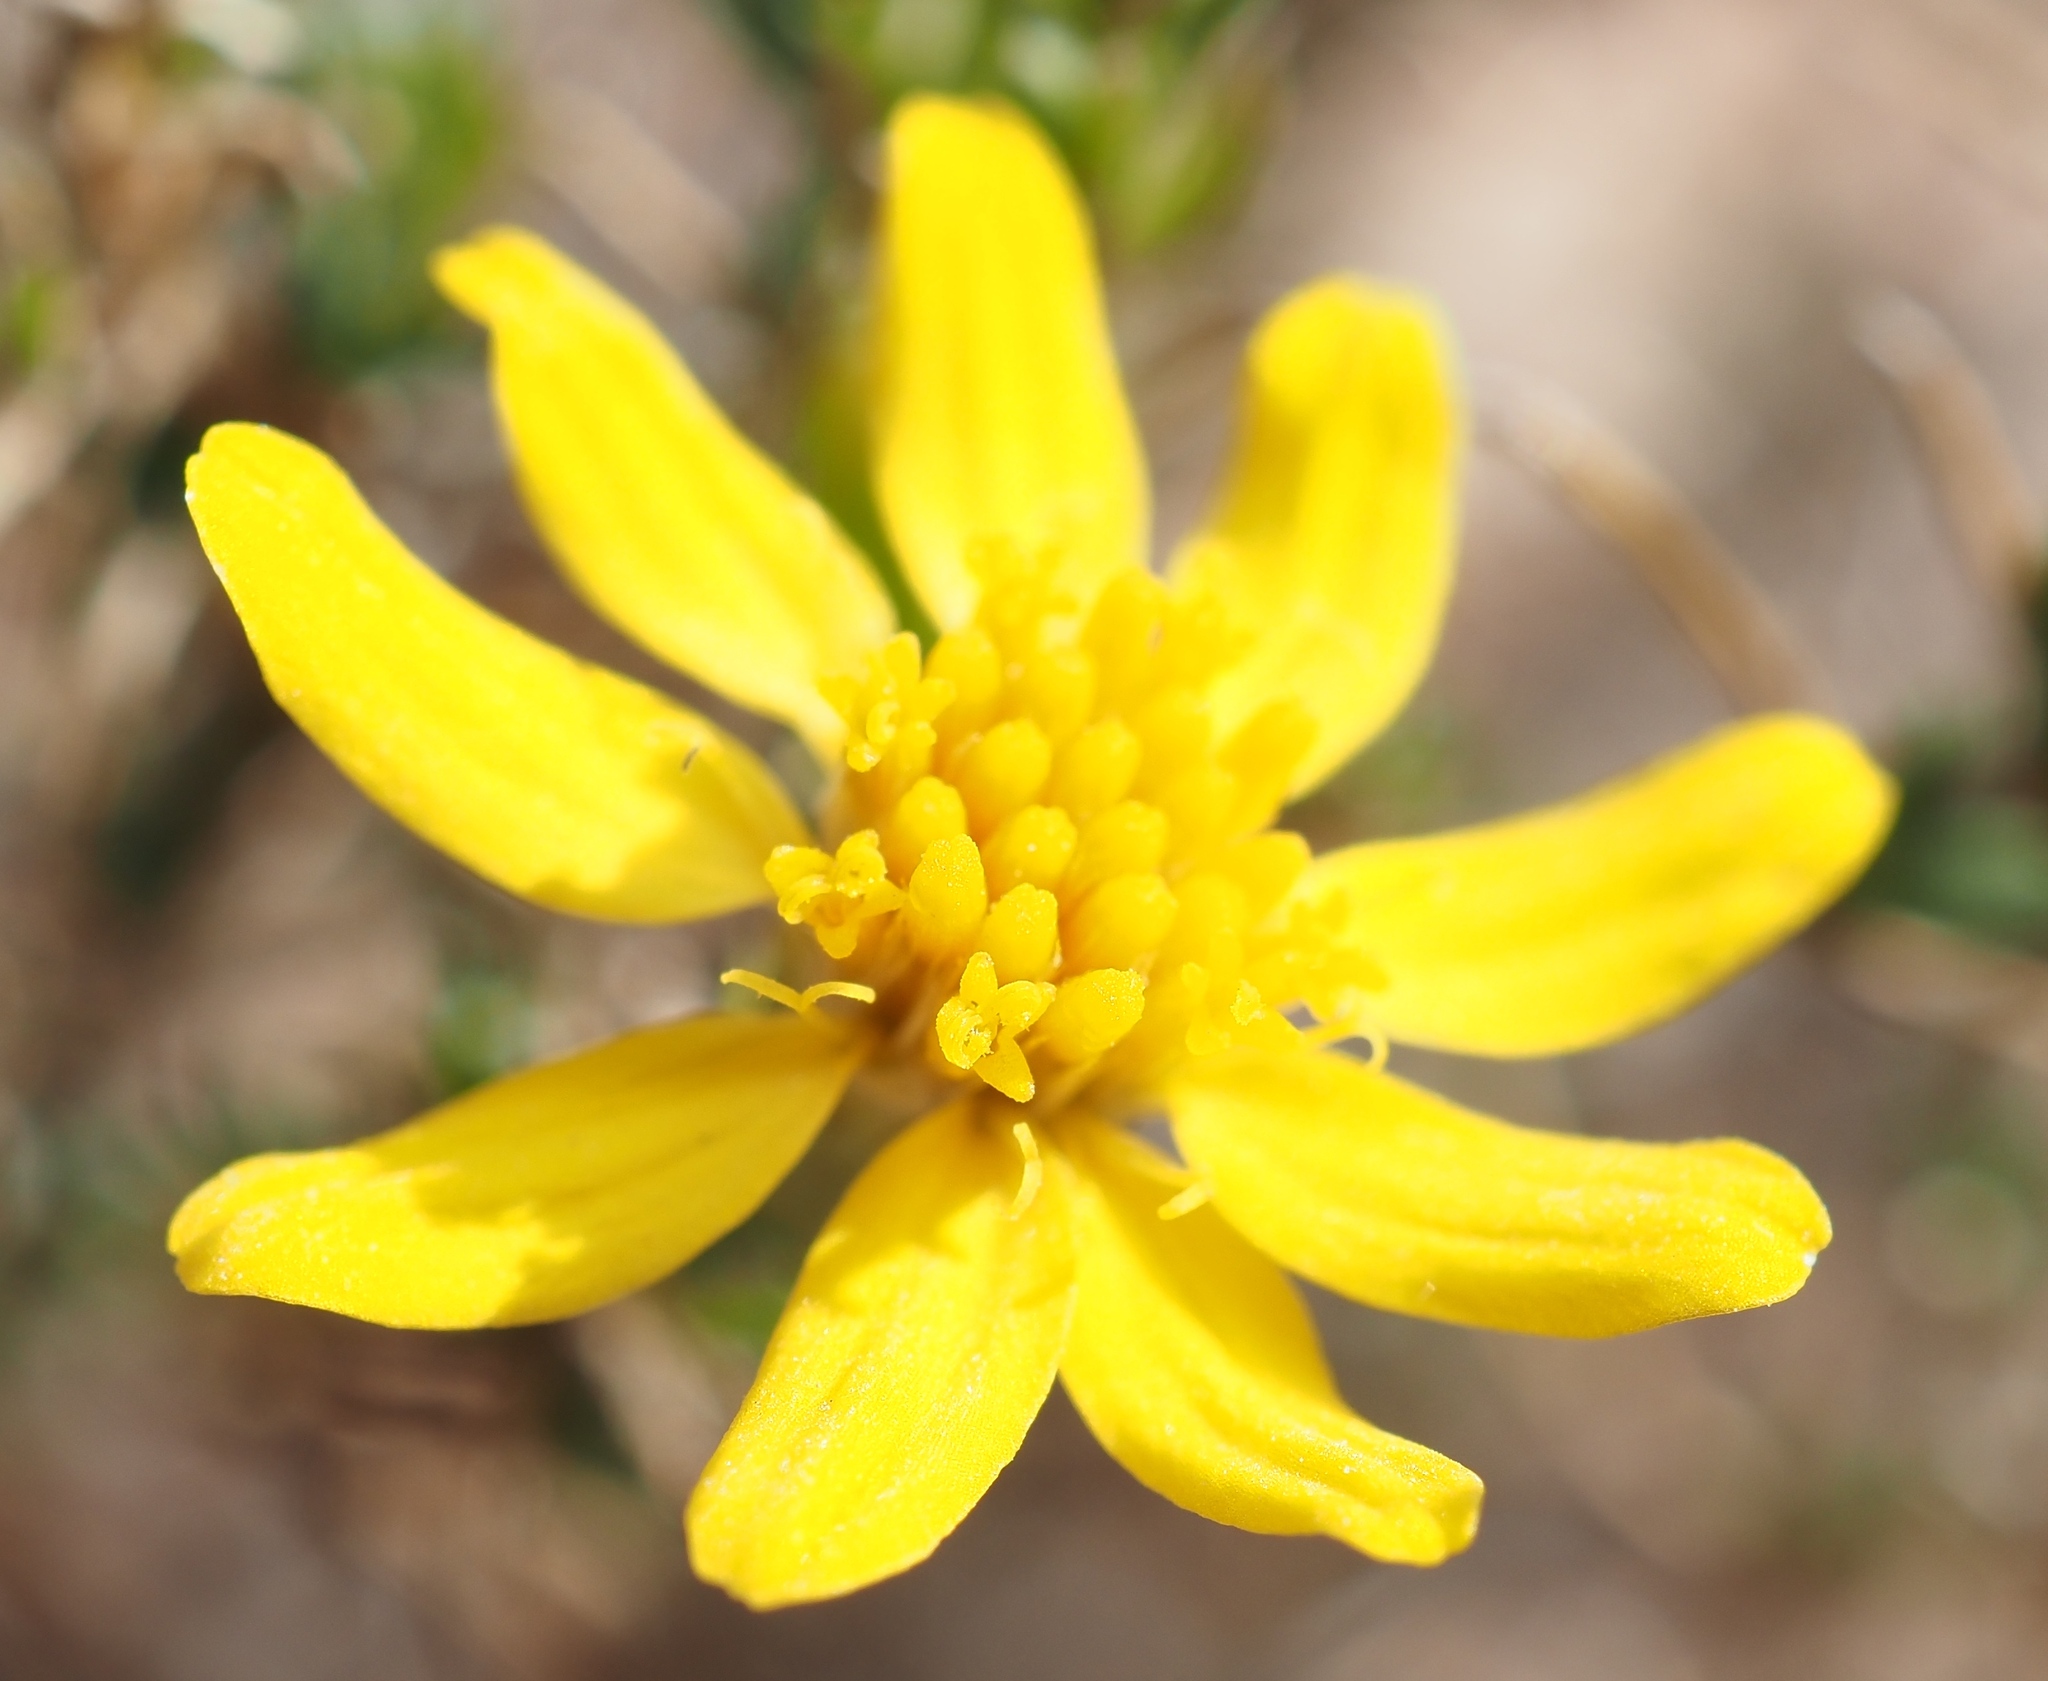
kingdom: Plantae
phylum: Tracheophyta
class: Magnoliopsida
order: Asterales
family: Asteraceae
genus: Thymophylla
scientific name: Thymophylla acerosa
